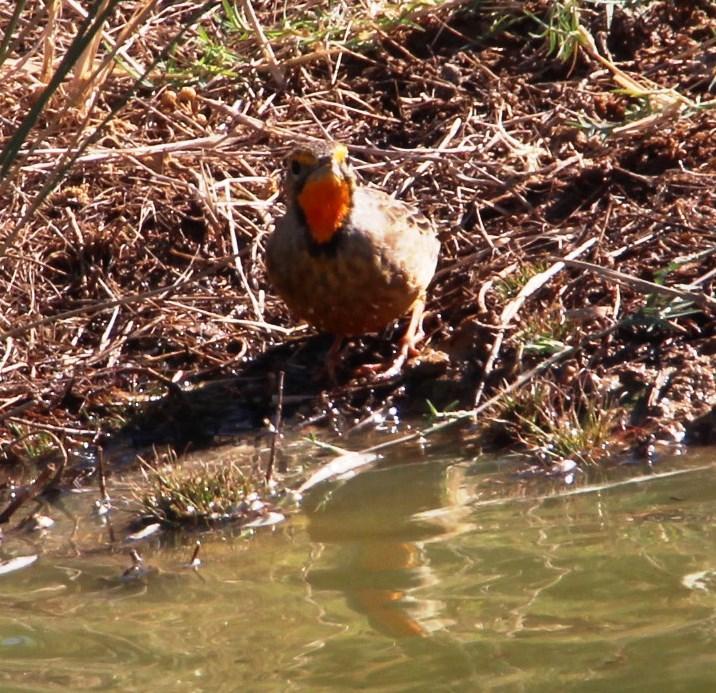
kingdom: Animalia
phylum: Chordata
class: Aves
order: Passeriformes
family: Motacillidae
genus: Macronyx
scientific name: Macronyx capensis
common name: Cape longclaw
